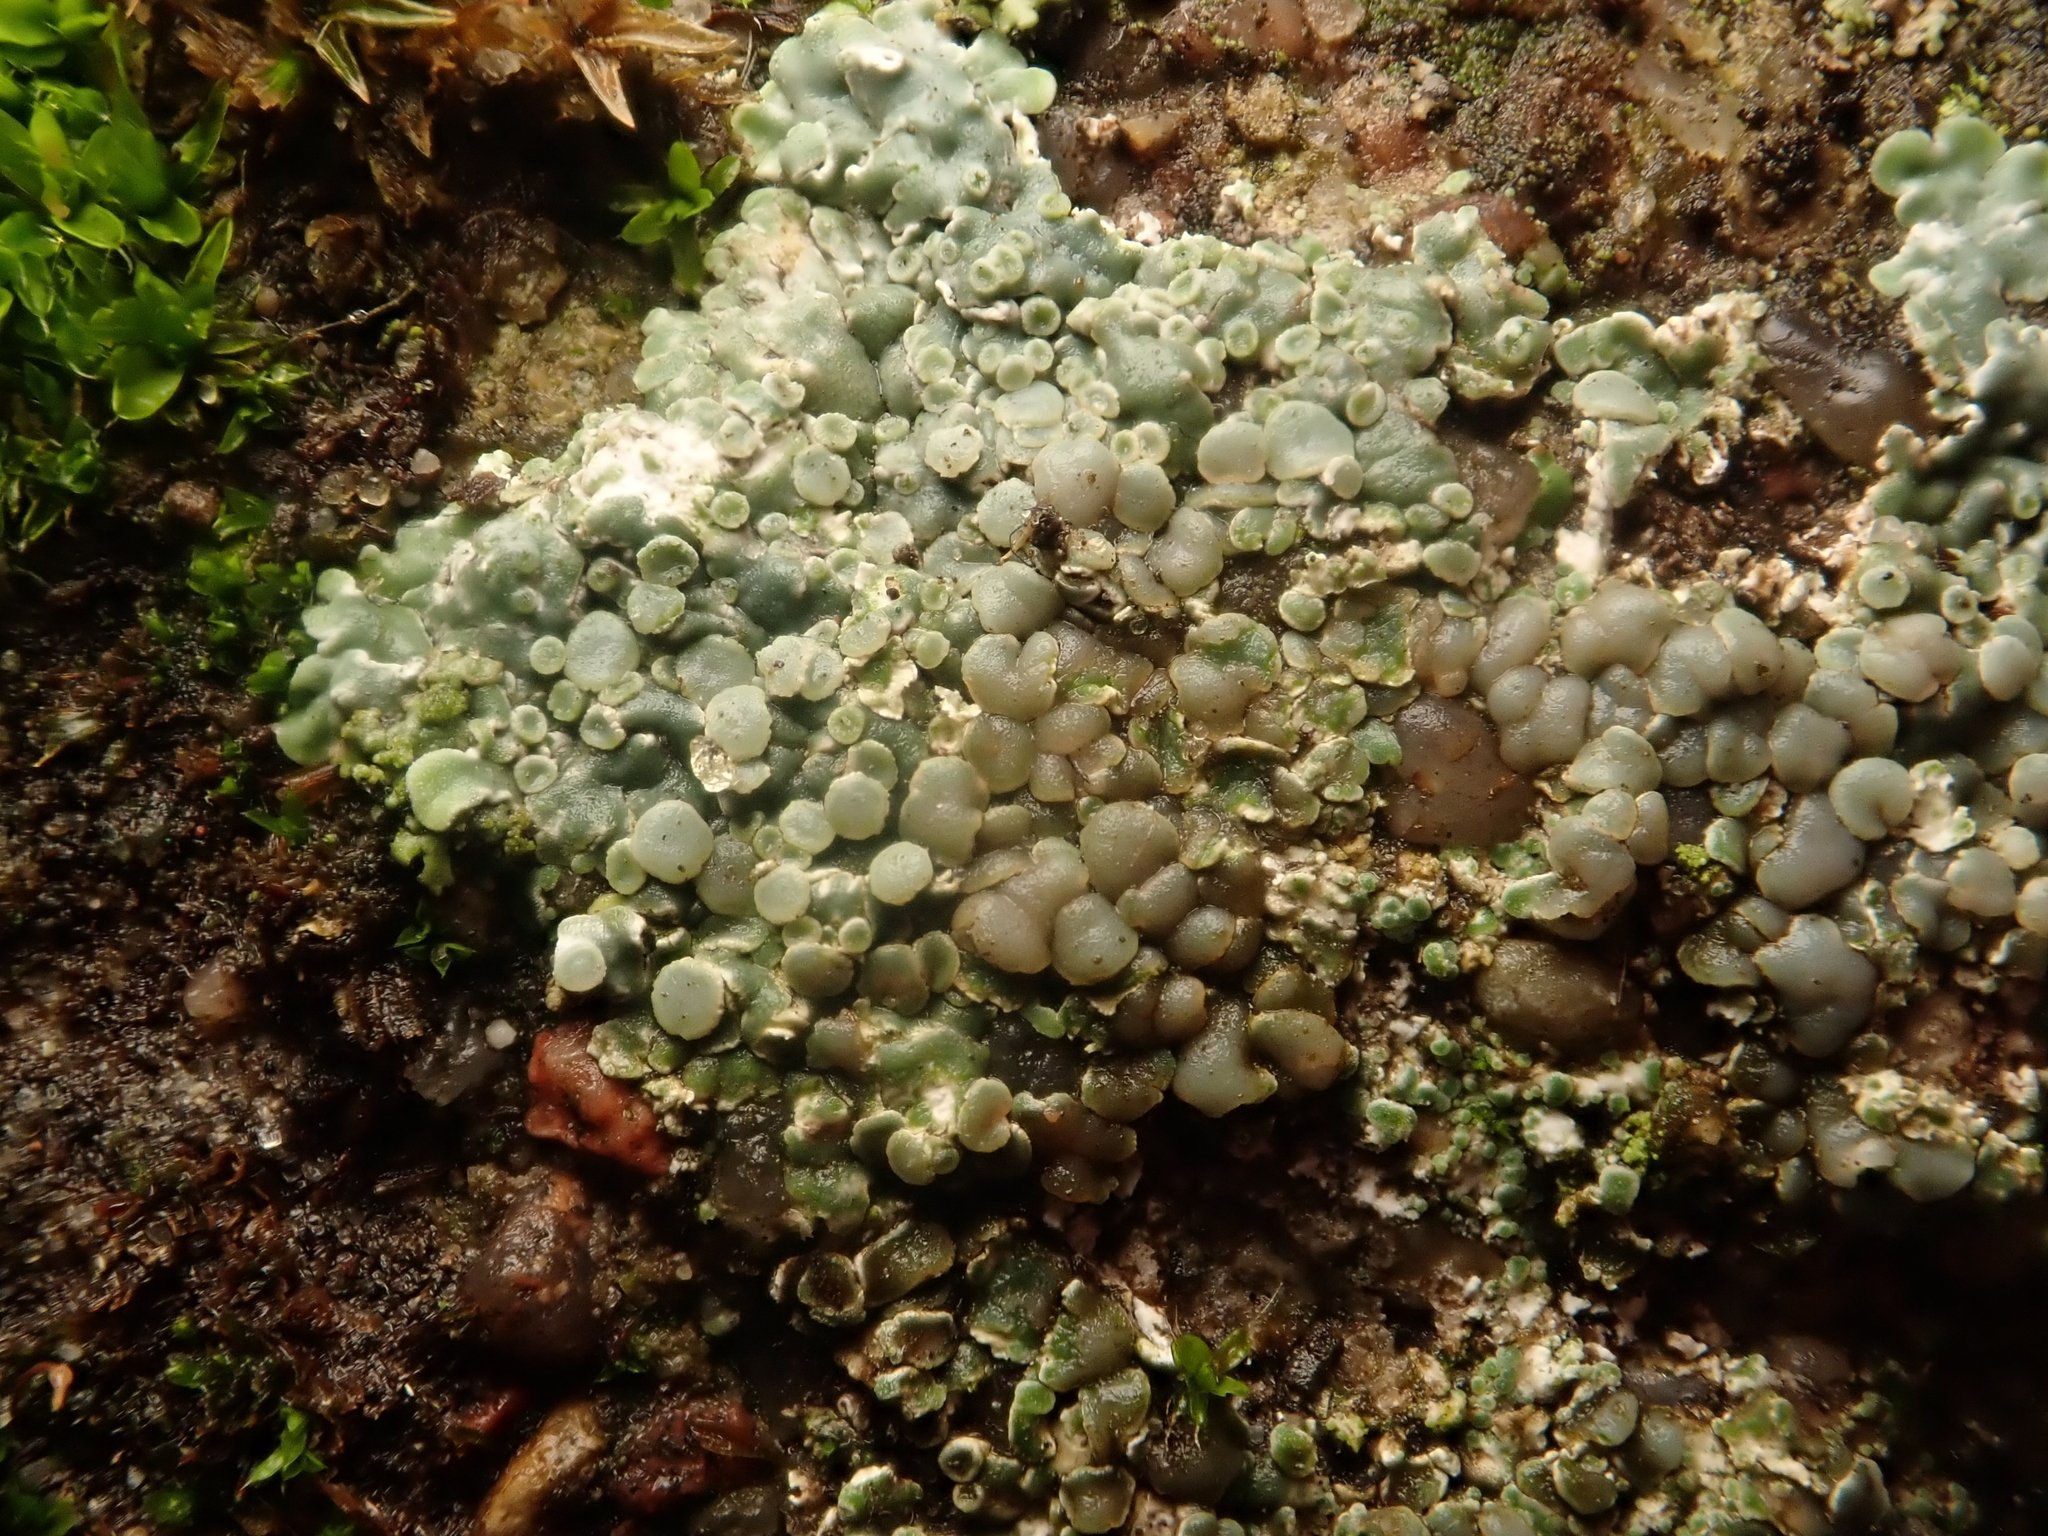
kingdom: Fungi
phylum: Ascomycota
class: Lecanoromycetes
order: Lecanorales
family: Lecanoraceae
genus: Protoparmeliopsis
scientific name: Protoparmeliopsis muralis
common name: Stonewall rim lichen
